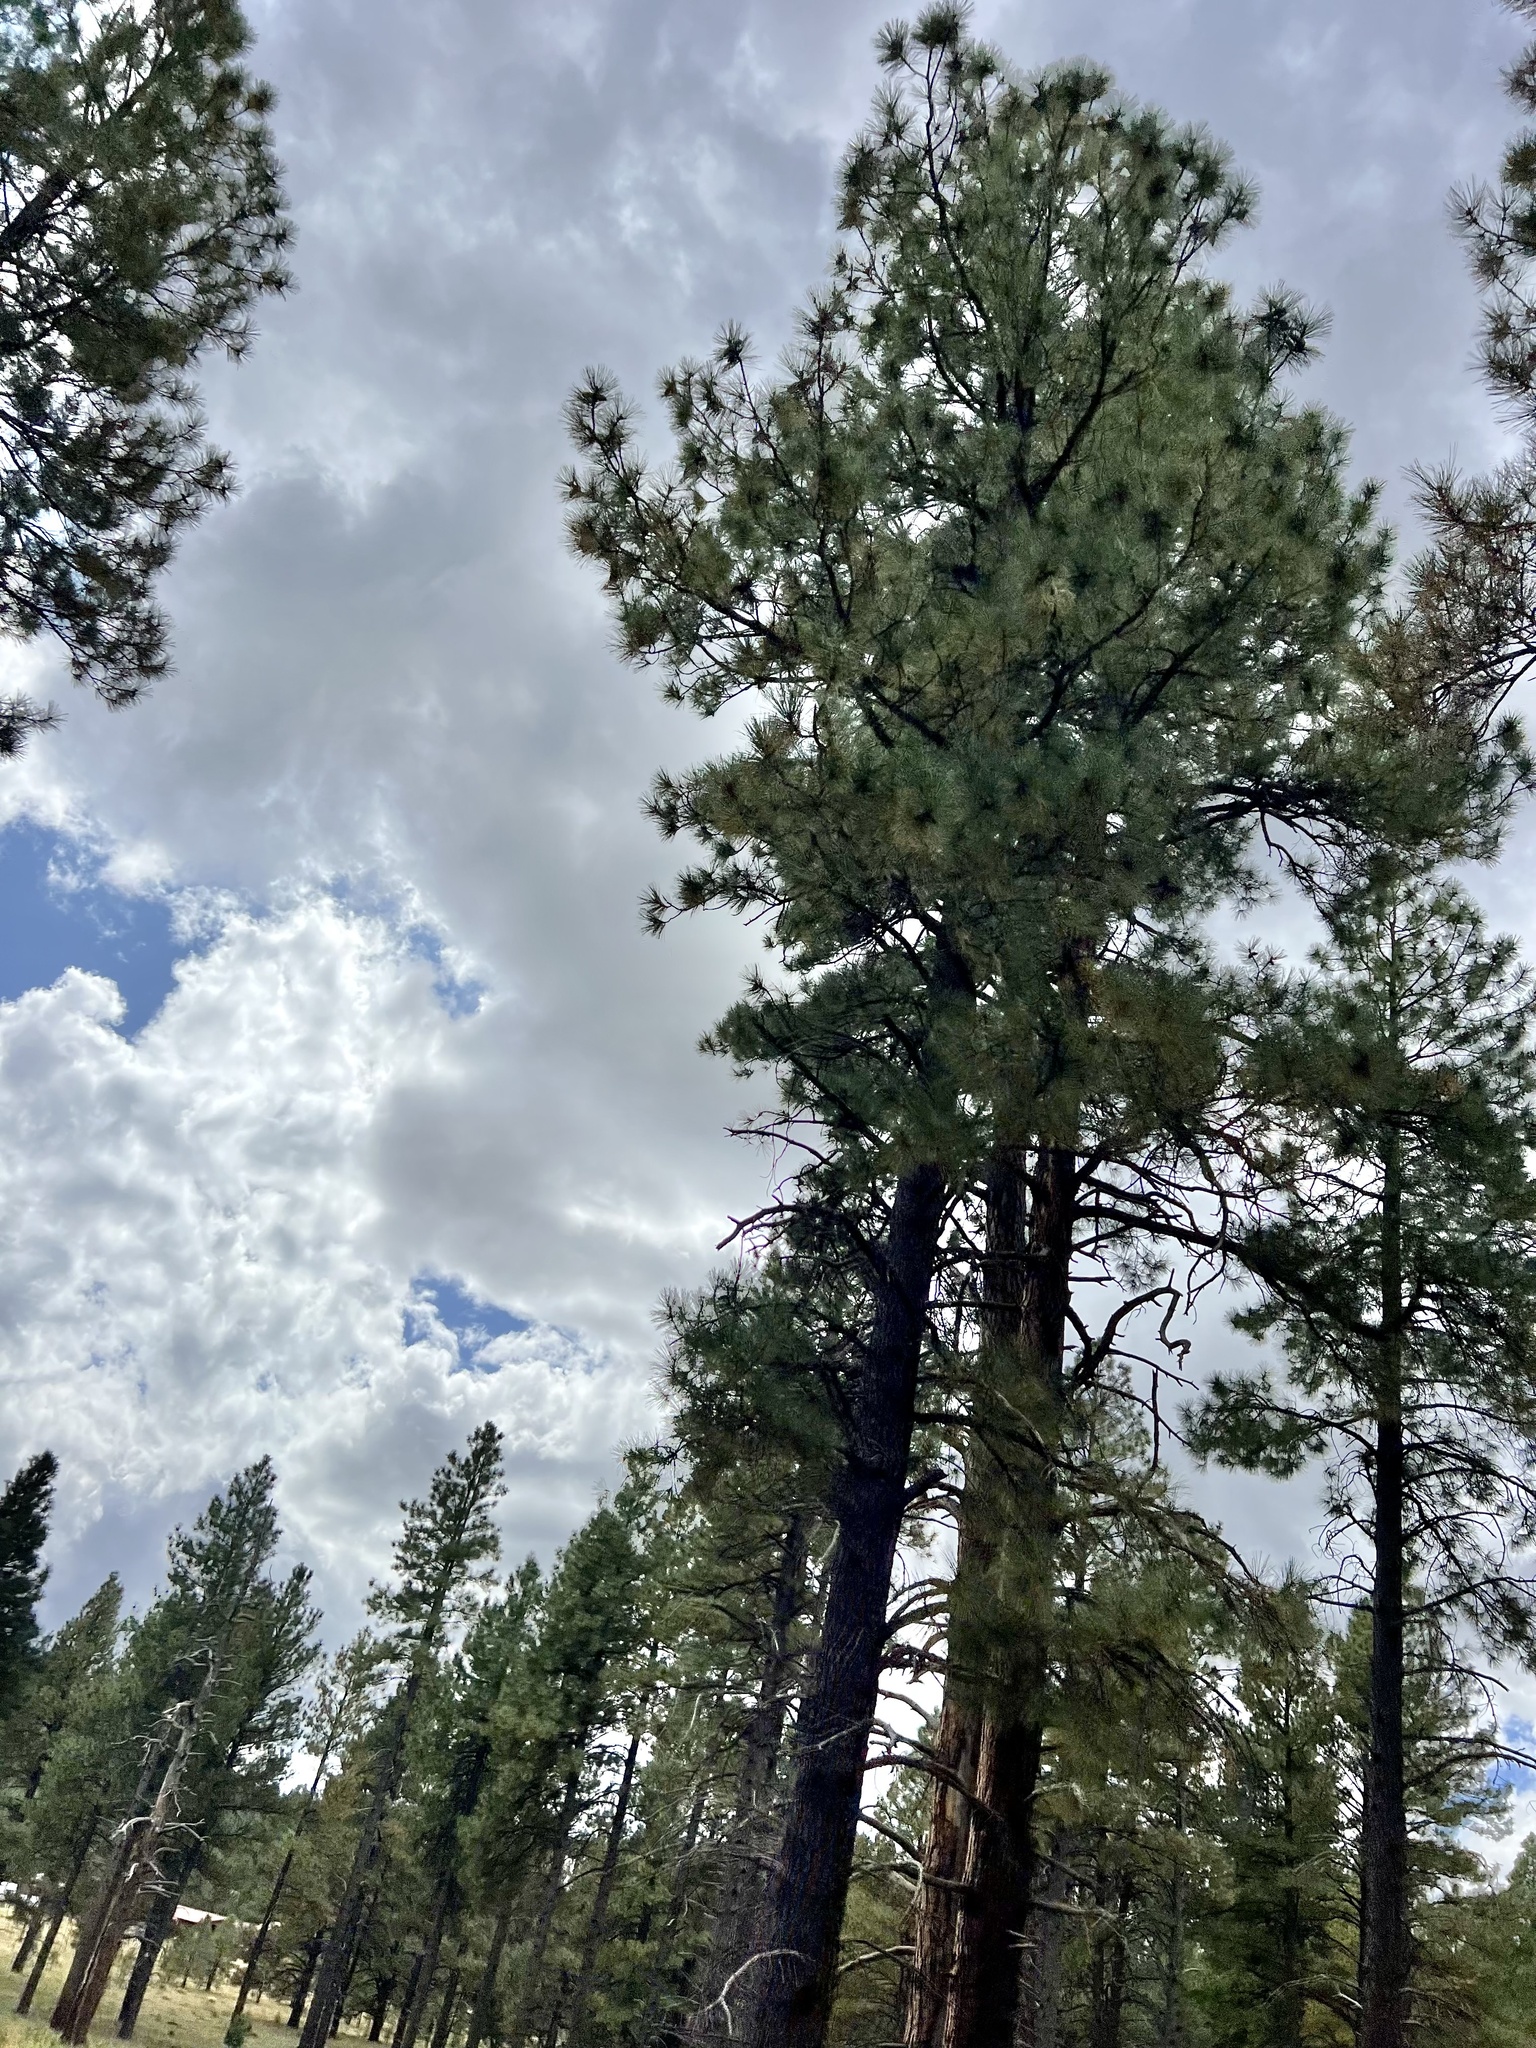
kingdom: Plantae
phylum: Tracheophyta
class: Pinopsida
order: Pinales
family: Pinaceae
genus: Pinus
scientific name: Pinus ponderosa
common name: Western yellow-pine
